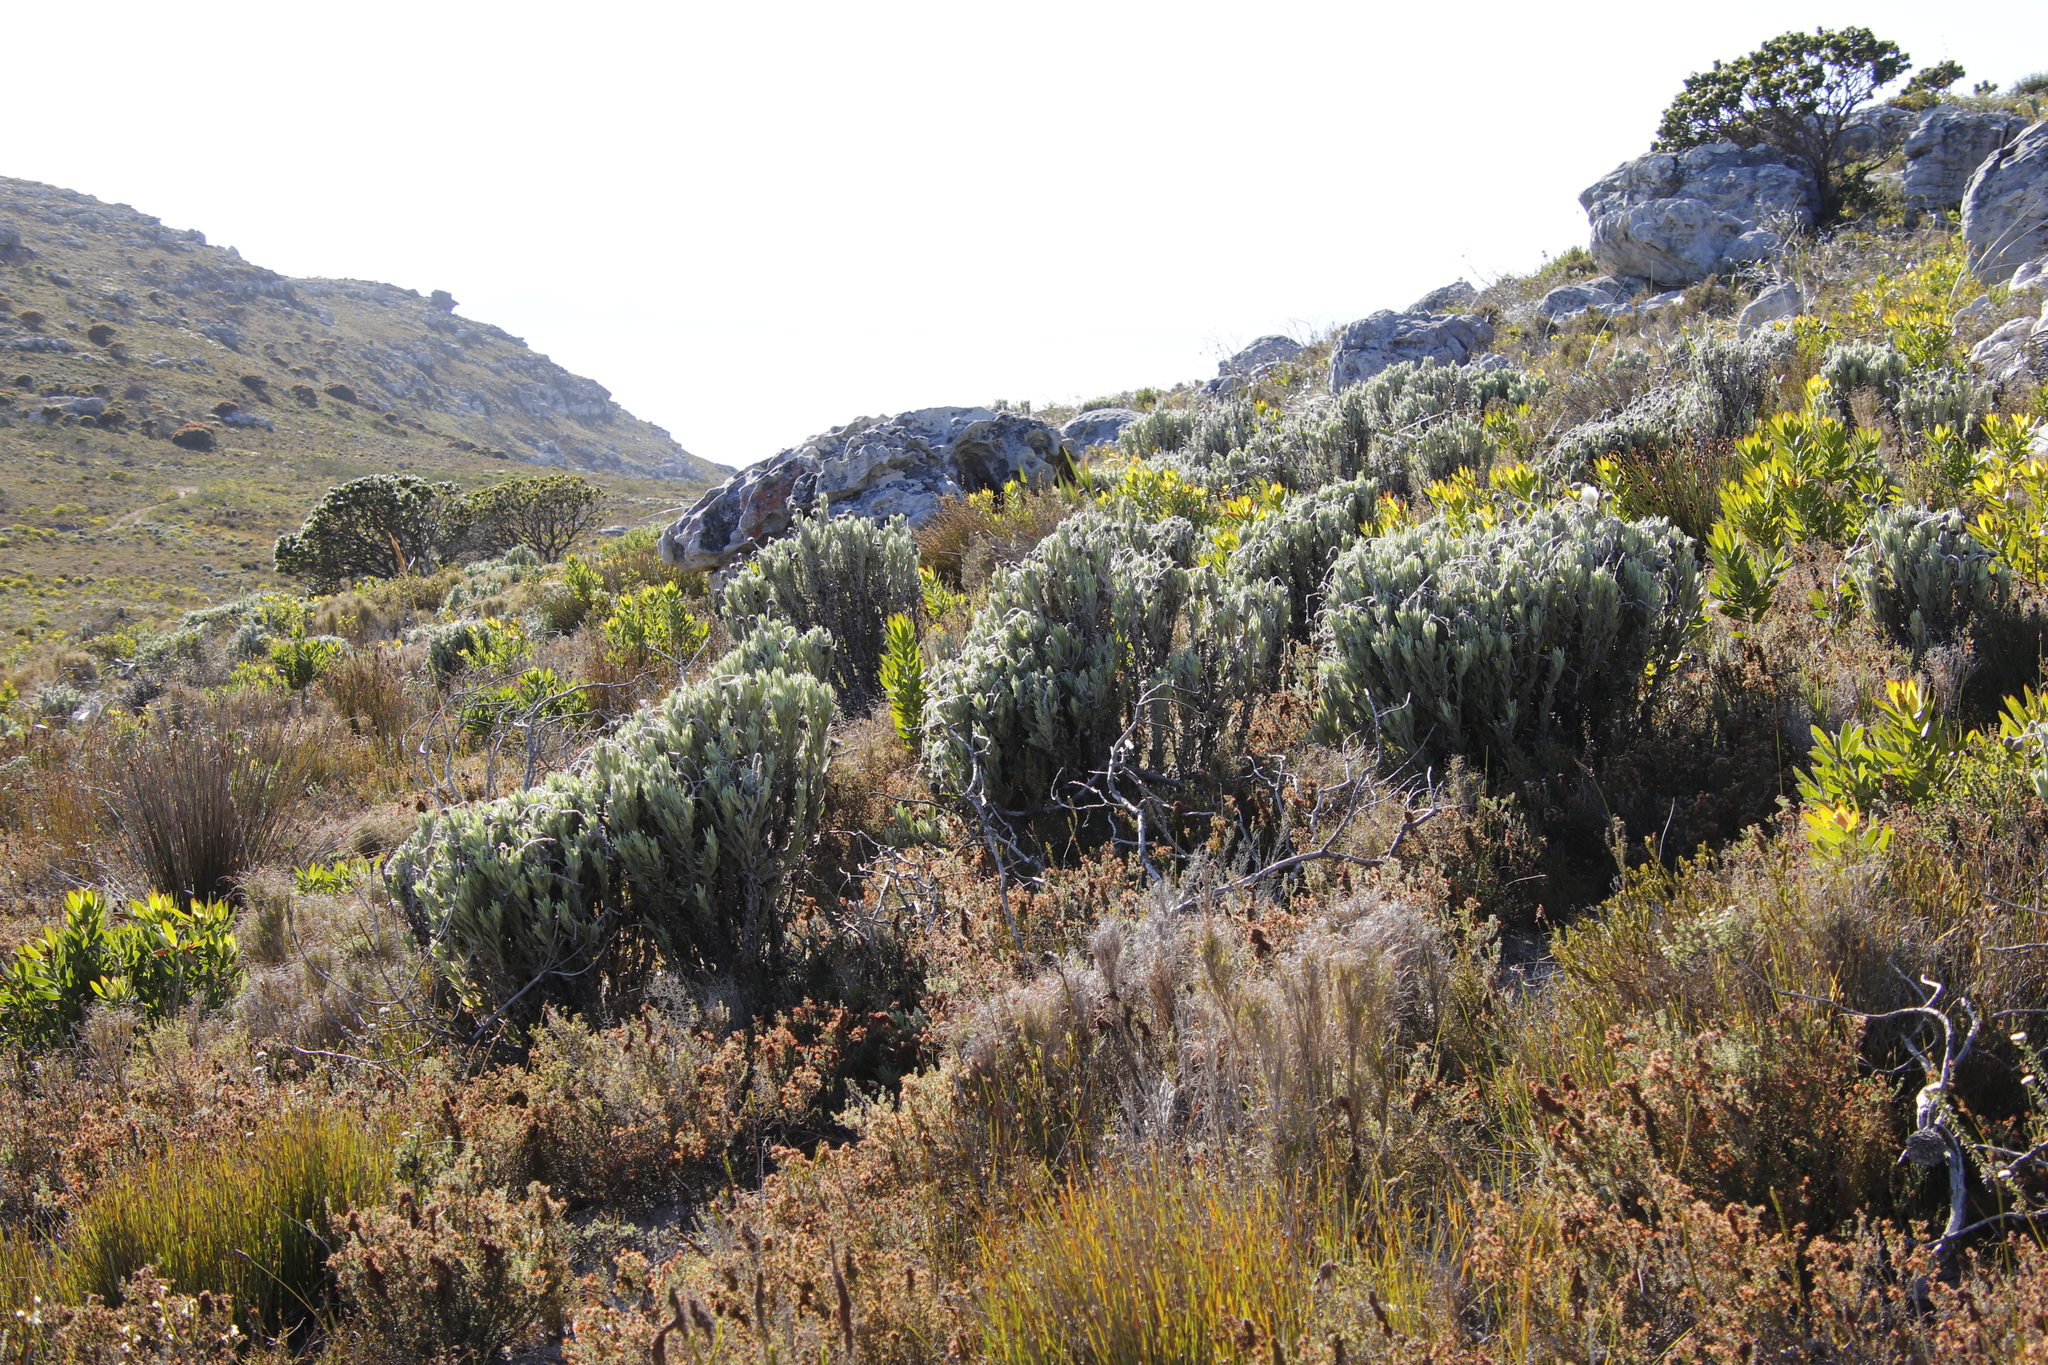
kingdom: Plantae
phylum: Tracheophyta
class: Magnoliopsida
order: Asterales
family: Asteraceae
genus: Syncarpha
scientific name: Syncarpha vestita
